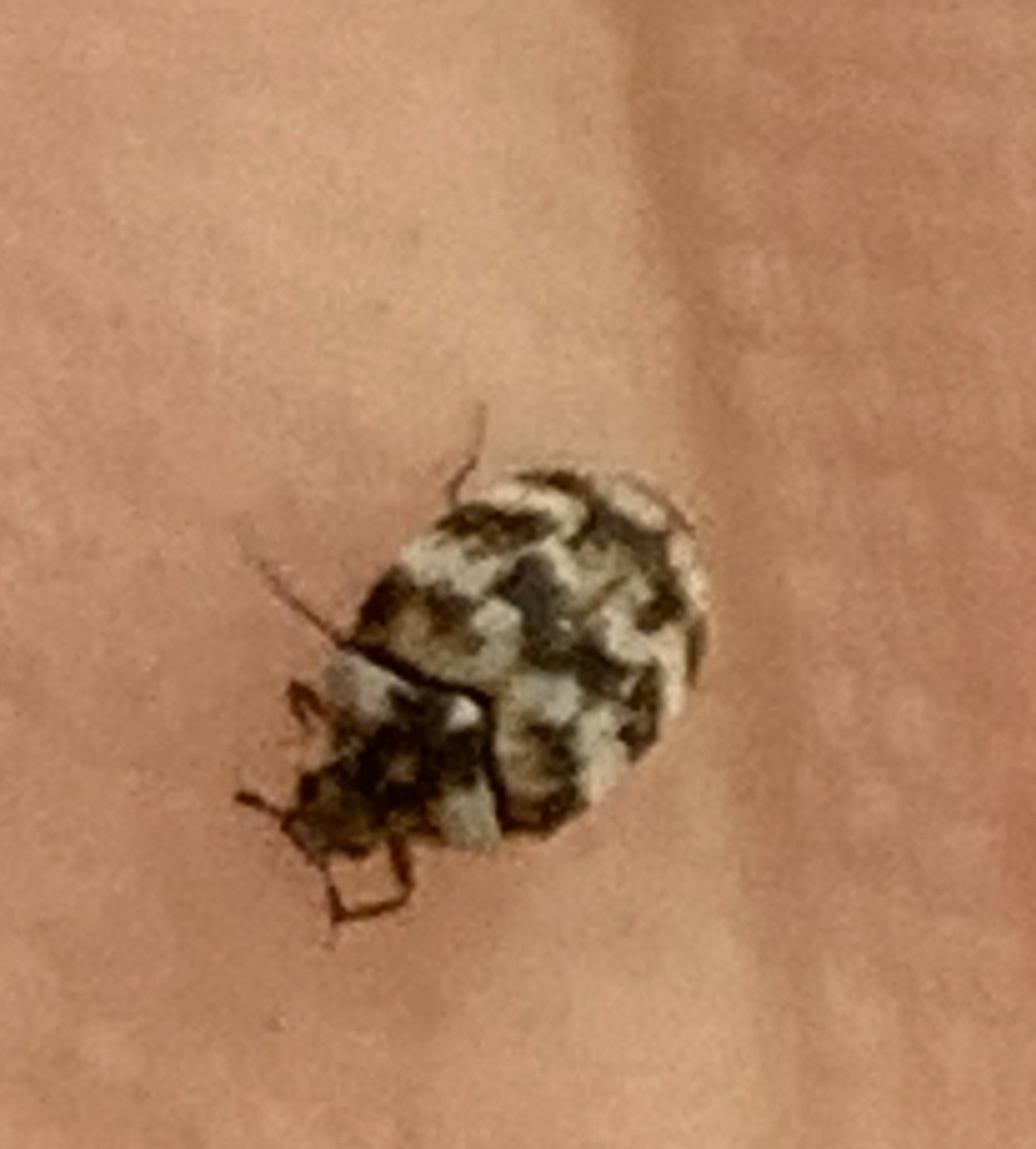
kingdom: Animalia
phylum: Arthropoda
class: Insecta
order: Coleoptera
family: Dermestidae
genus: Anthrenus
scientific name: Anthrenus verbasci
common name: Varied carpet beetle
